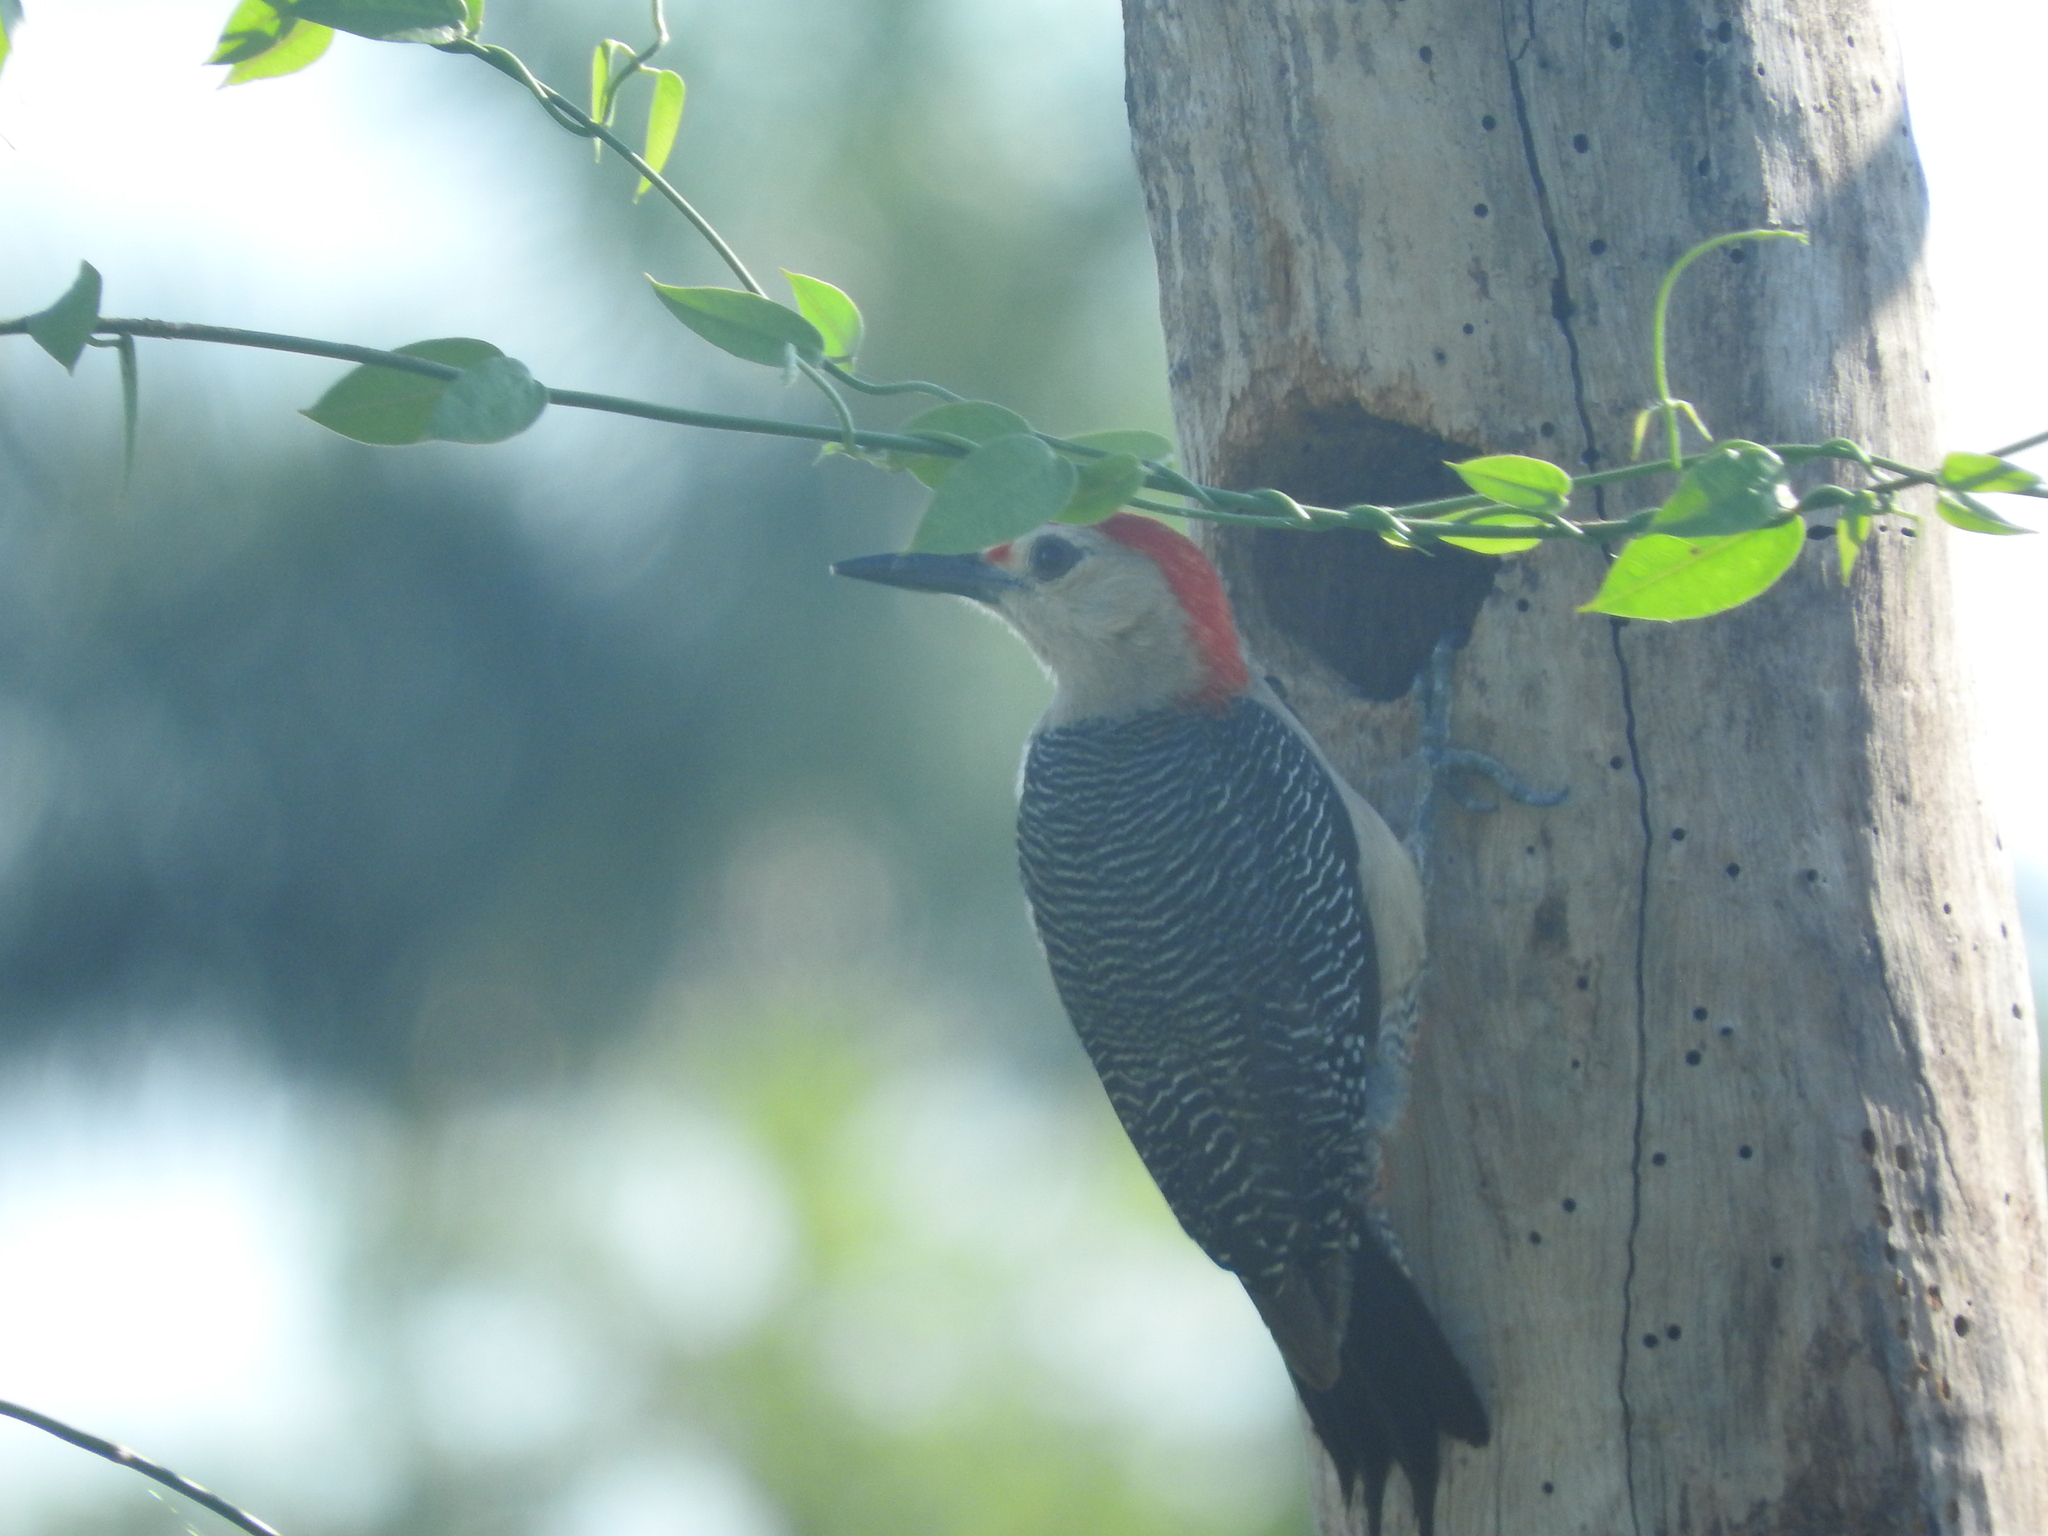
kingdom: Animalia
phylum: Chordata
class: Aves
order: Piciformes
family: Picidae
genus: Melanerpes
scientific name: Melanerpes aurifrons
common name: Golden-fronted woodpecker
